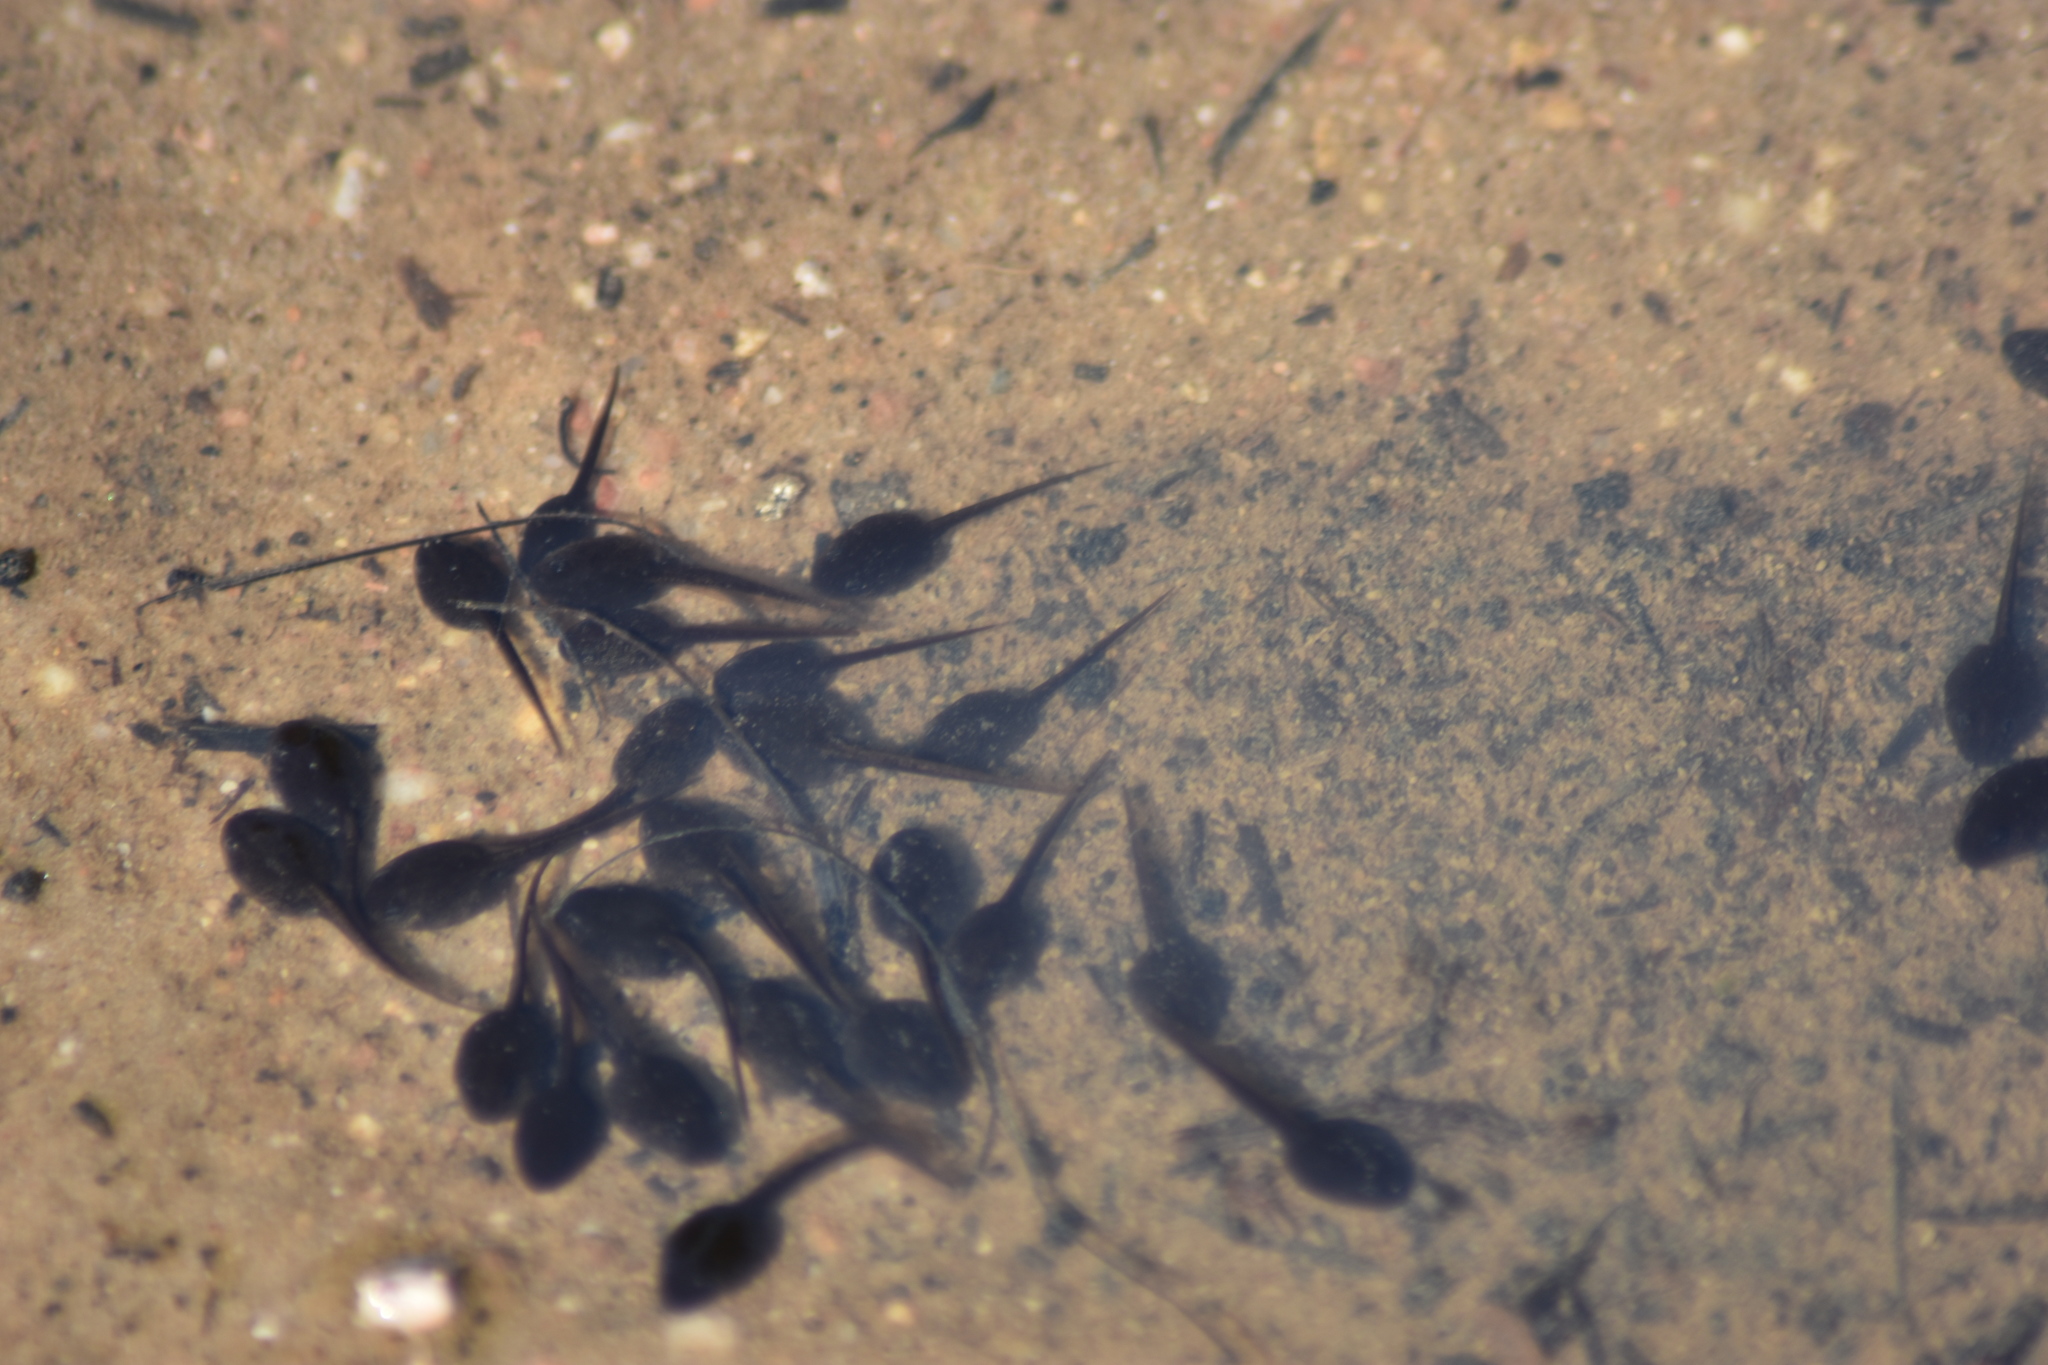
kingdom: Animalia
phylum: Chordata
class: Amphibia
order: Anura
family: Bufonidae
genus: Epidalea
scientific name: Epidalea calamita
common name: Natterjack toad
